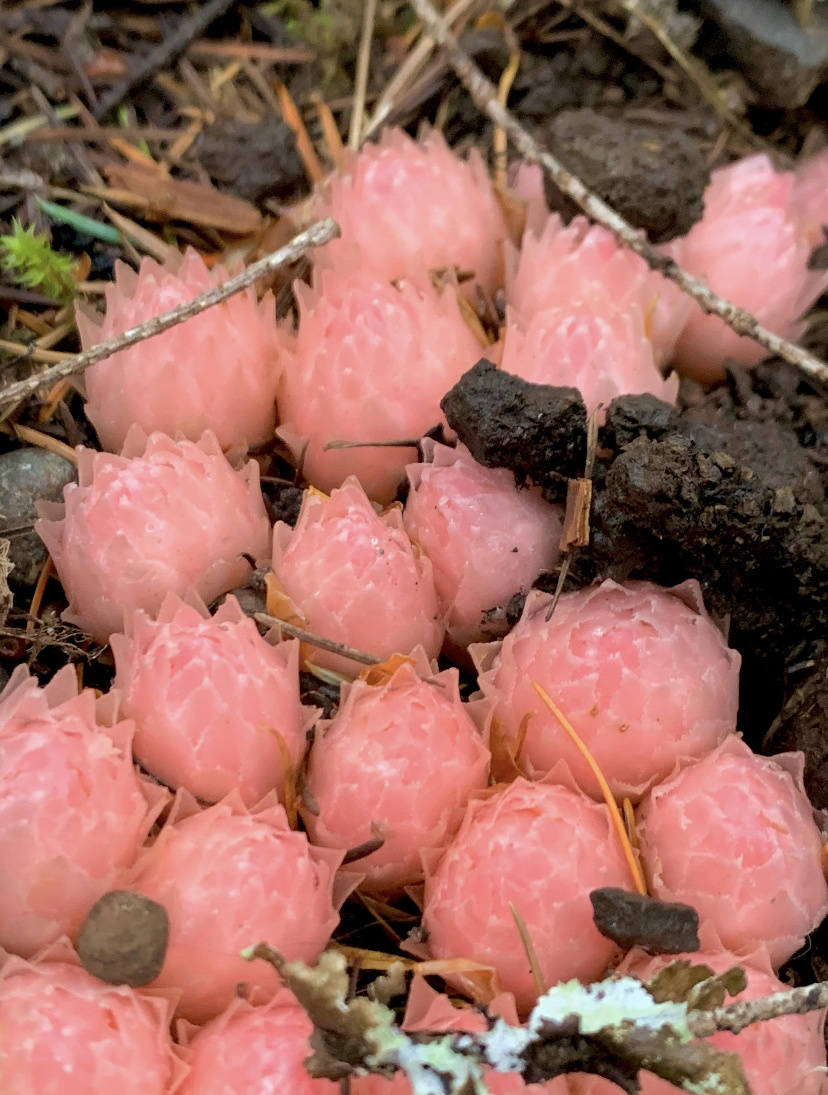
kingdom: Plantae
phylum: Tracheophyta
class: Magnoliopsida
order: Ericales
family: Ericaceae
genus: Hemitomes
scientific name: Hemitomes congestum
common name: Cone plant
